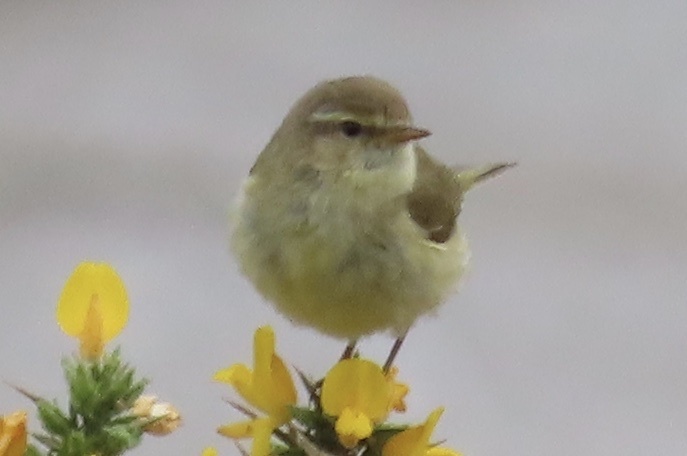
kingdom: Animalia
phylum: Chordata
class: Aves
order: Passeriformes
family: Phylloscopidae
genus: Phylloscopus
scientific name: Phylloscopus trochilus
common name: Willow warbler
